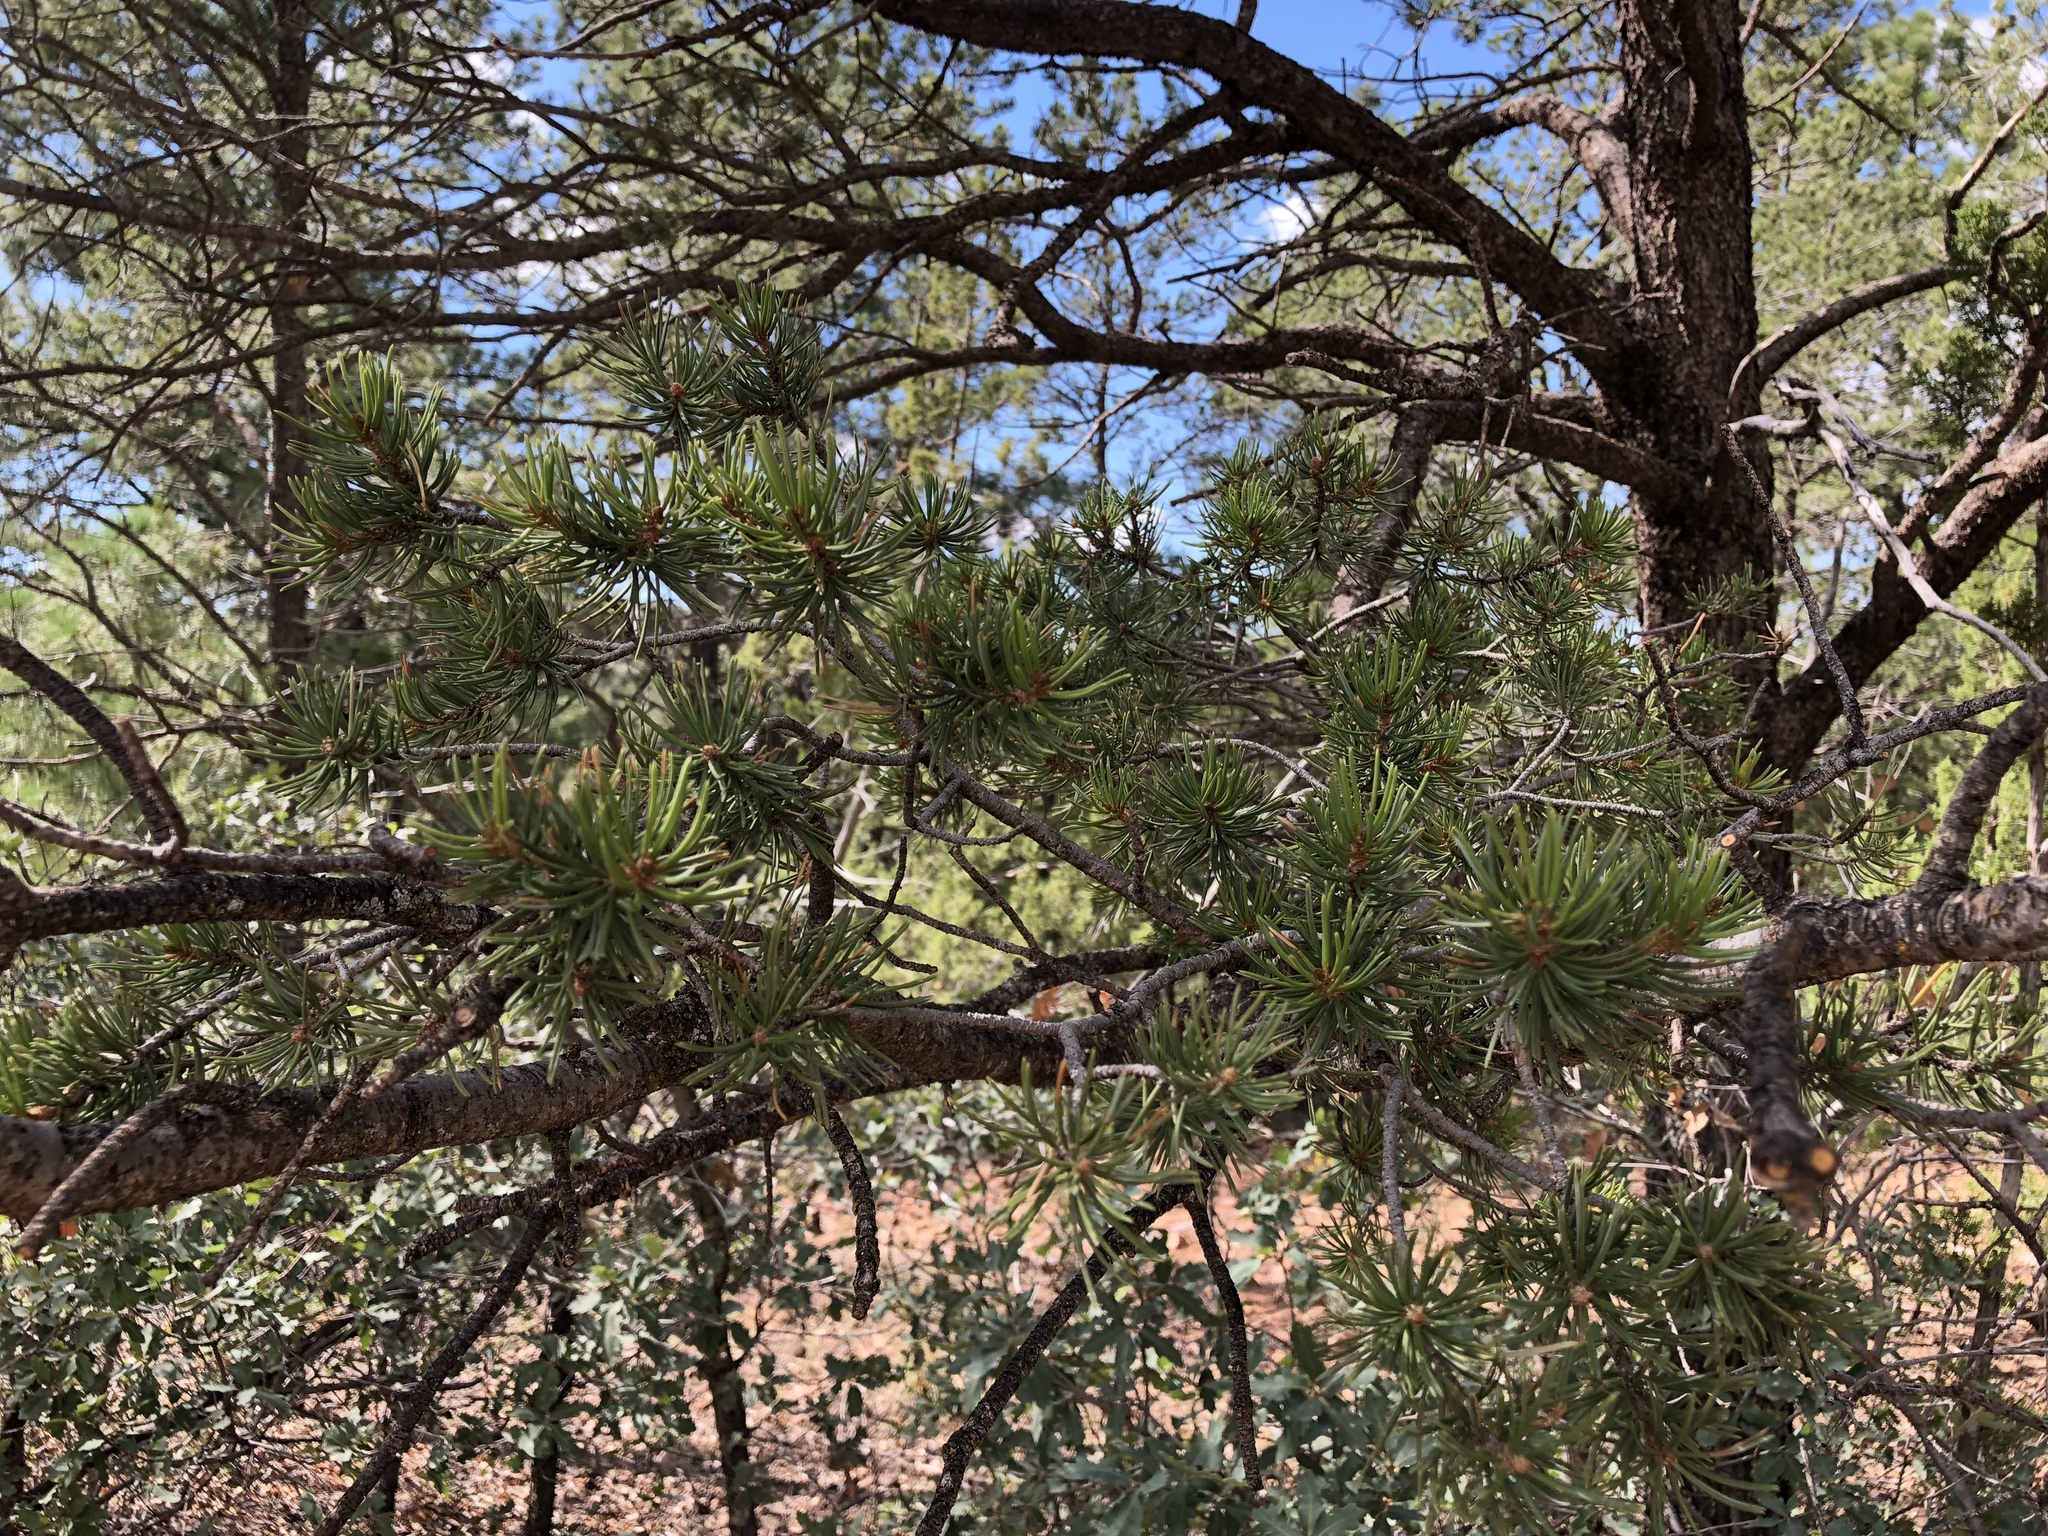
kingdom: Plantae
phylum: Tracheophyta
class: Pinopsida
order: Pinales
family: Pinaceae
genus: Pinus
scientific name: Pinus edulis
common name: Colorado pinyon
